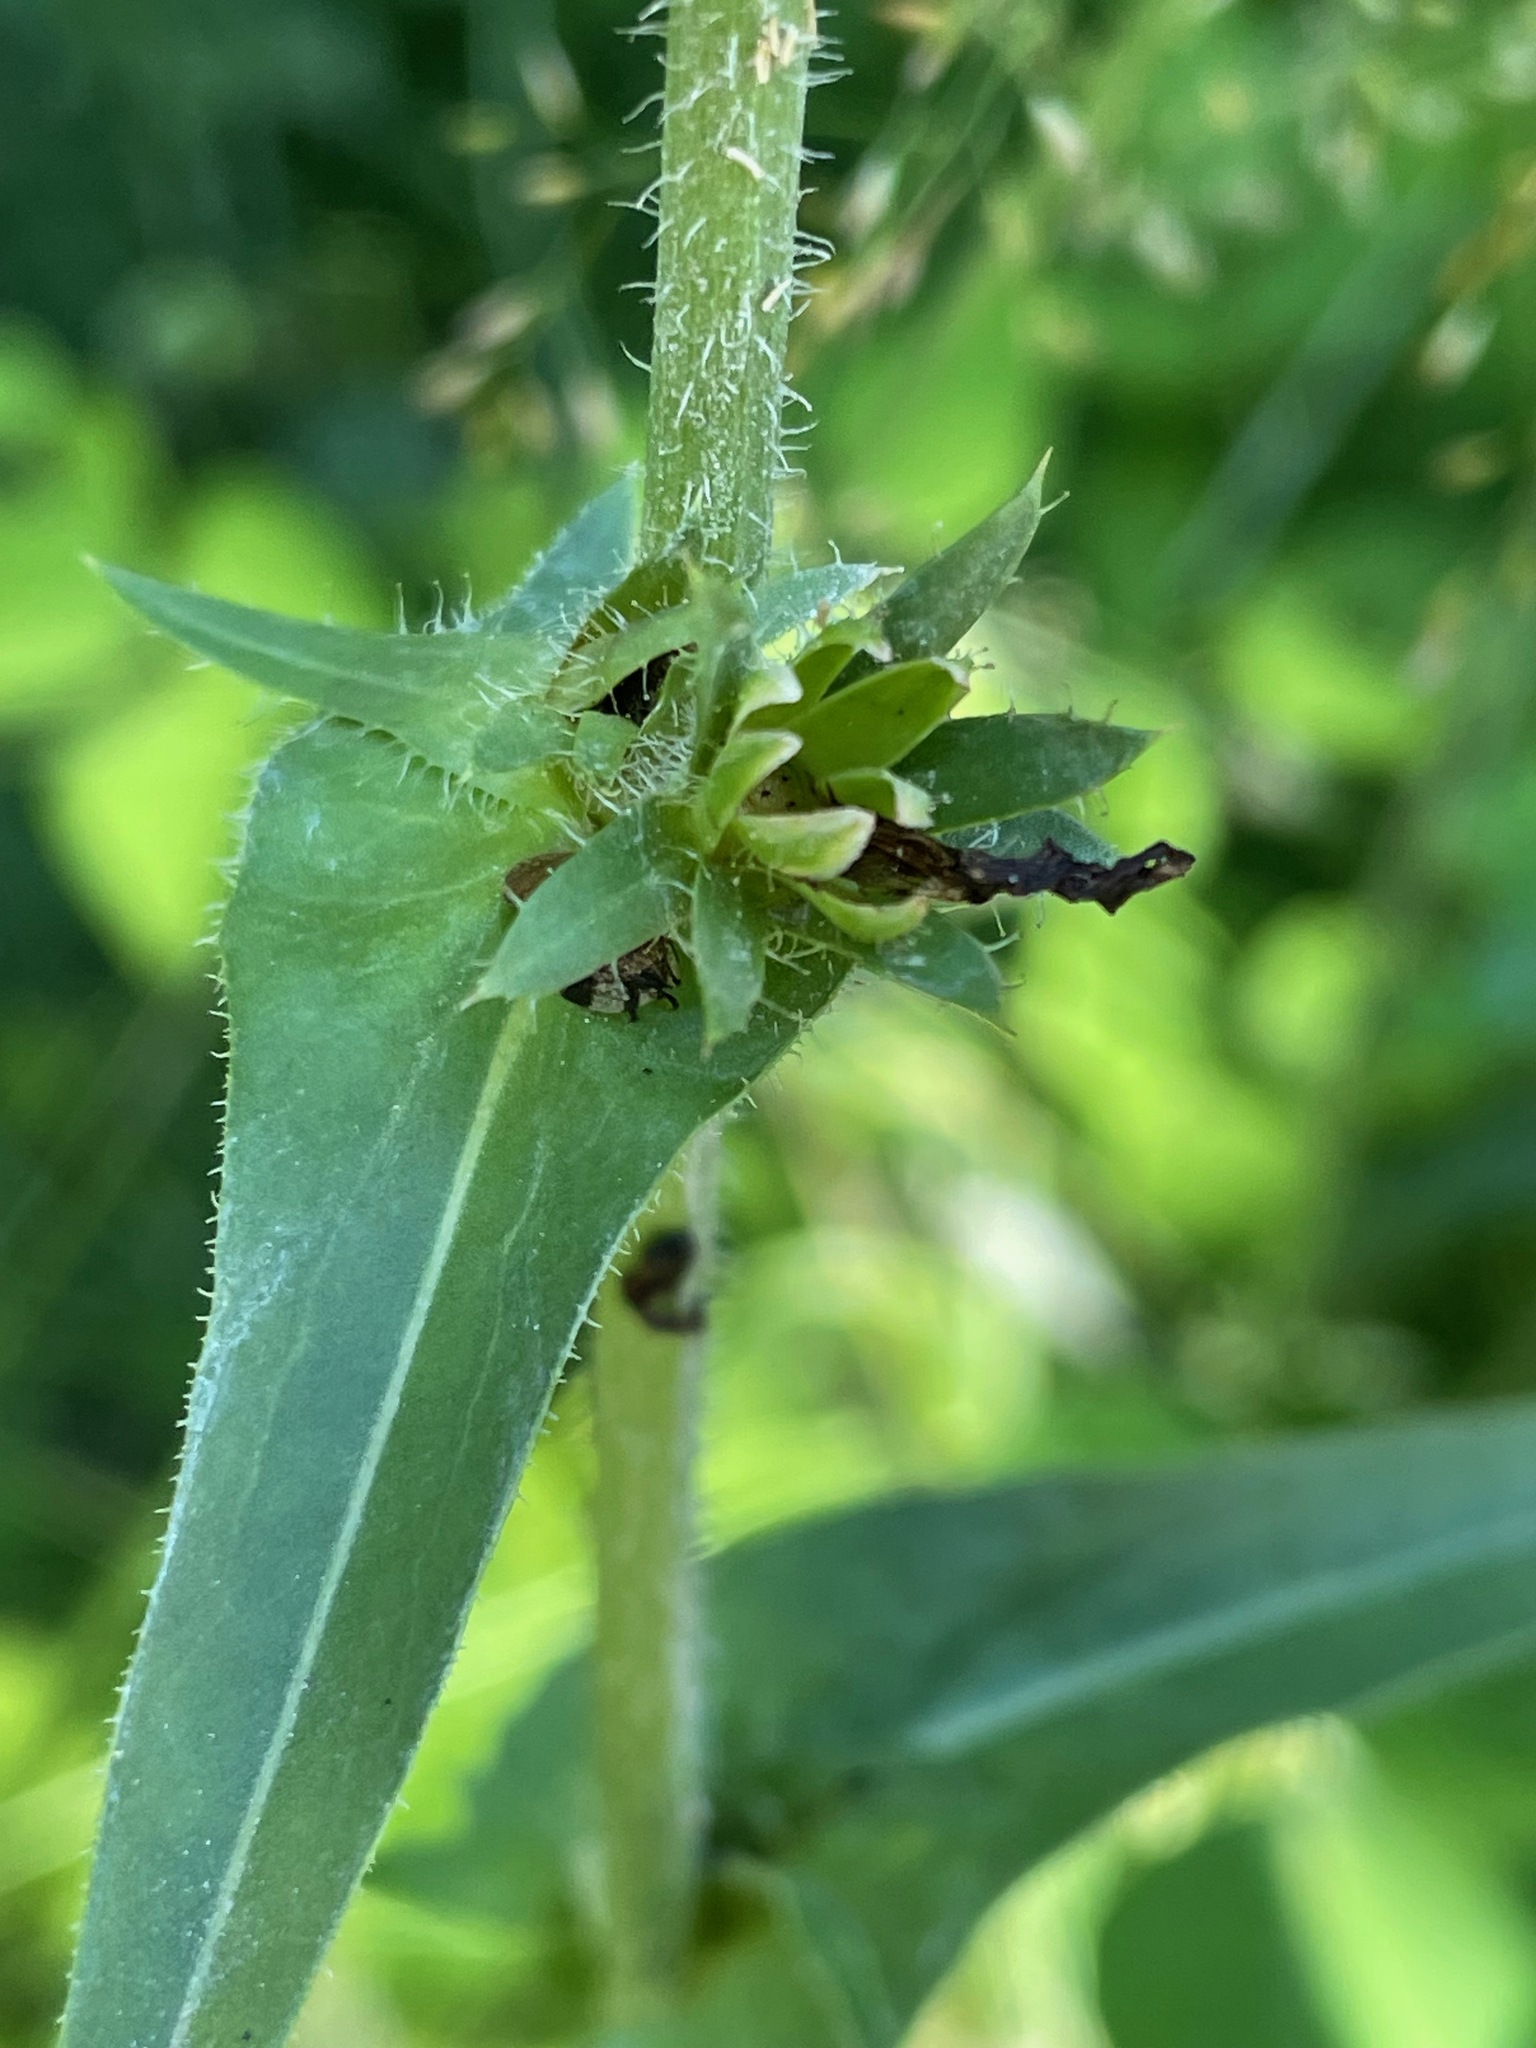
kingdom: Plantae
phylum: Tracheophyta
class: Magnoliopsida
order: Asterales
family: Asteraceae
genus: Cichorium
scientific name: Cichorium intybus
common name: Chicory
